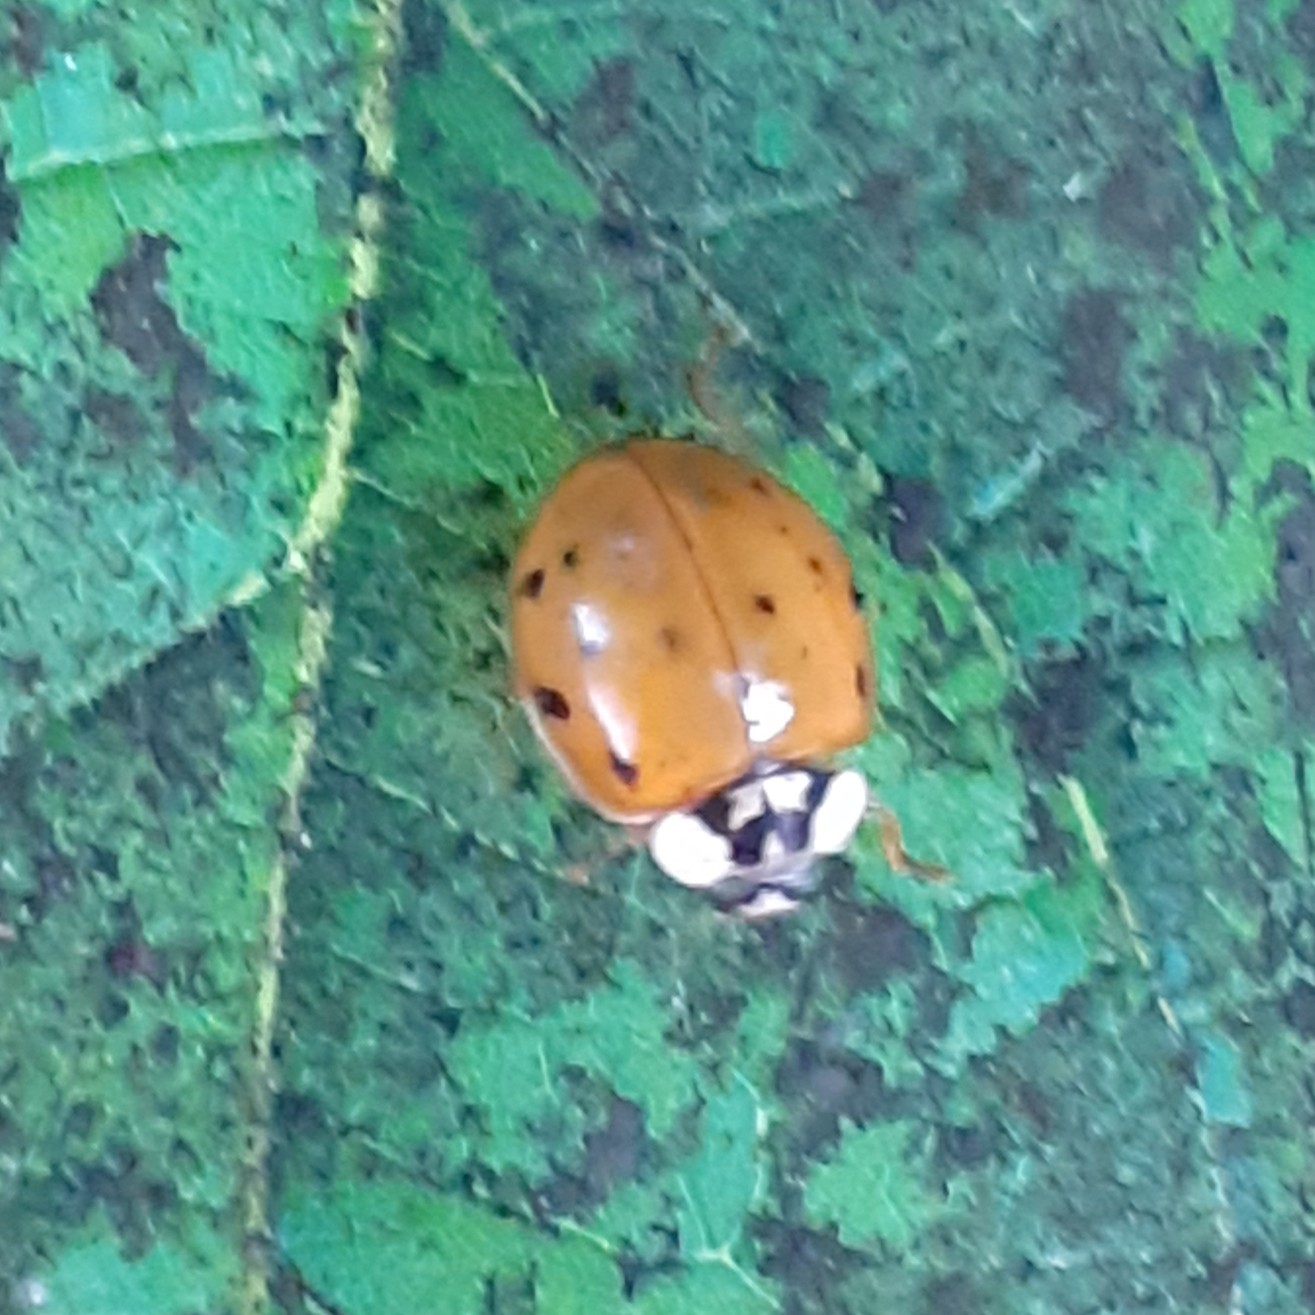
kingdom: Animalia
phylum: Arthropoda
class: Insecta
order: Coleoptera
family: Coccinellidae
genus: Harmonia
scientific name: Harmonia axyridis
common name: Harlequin ladybird
